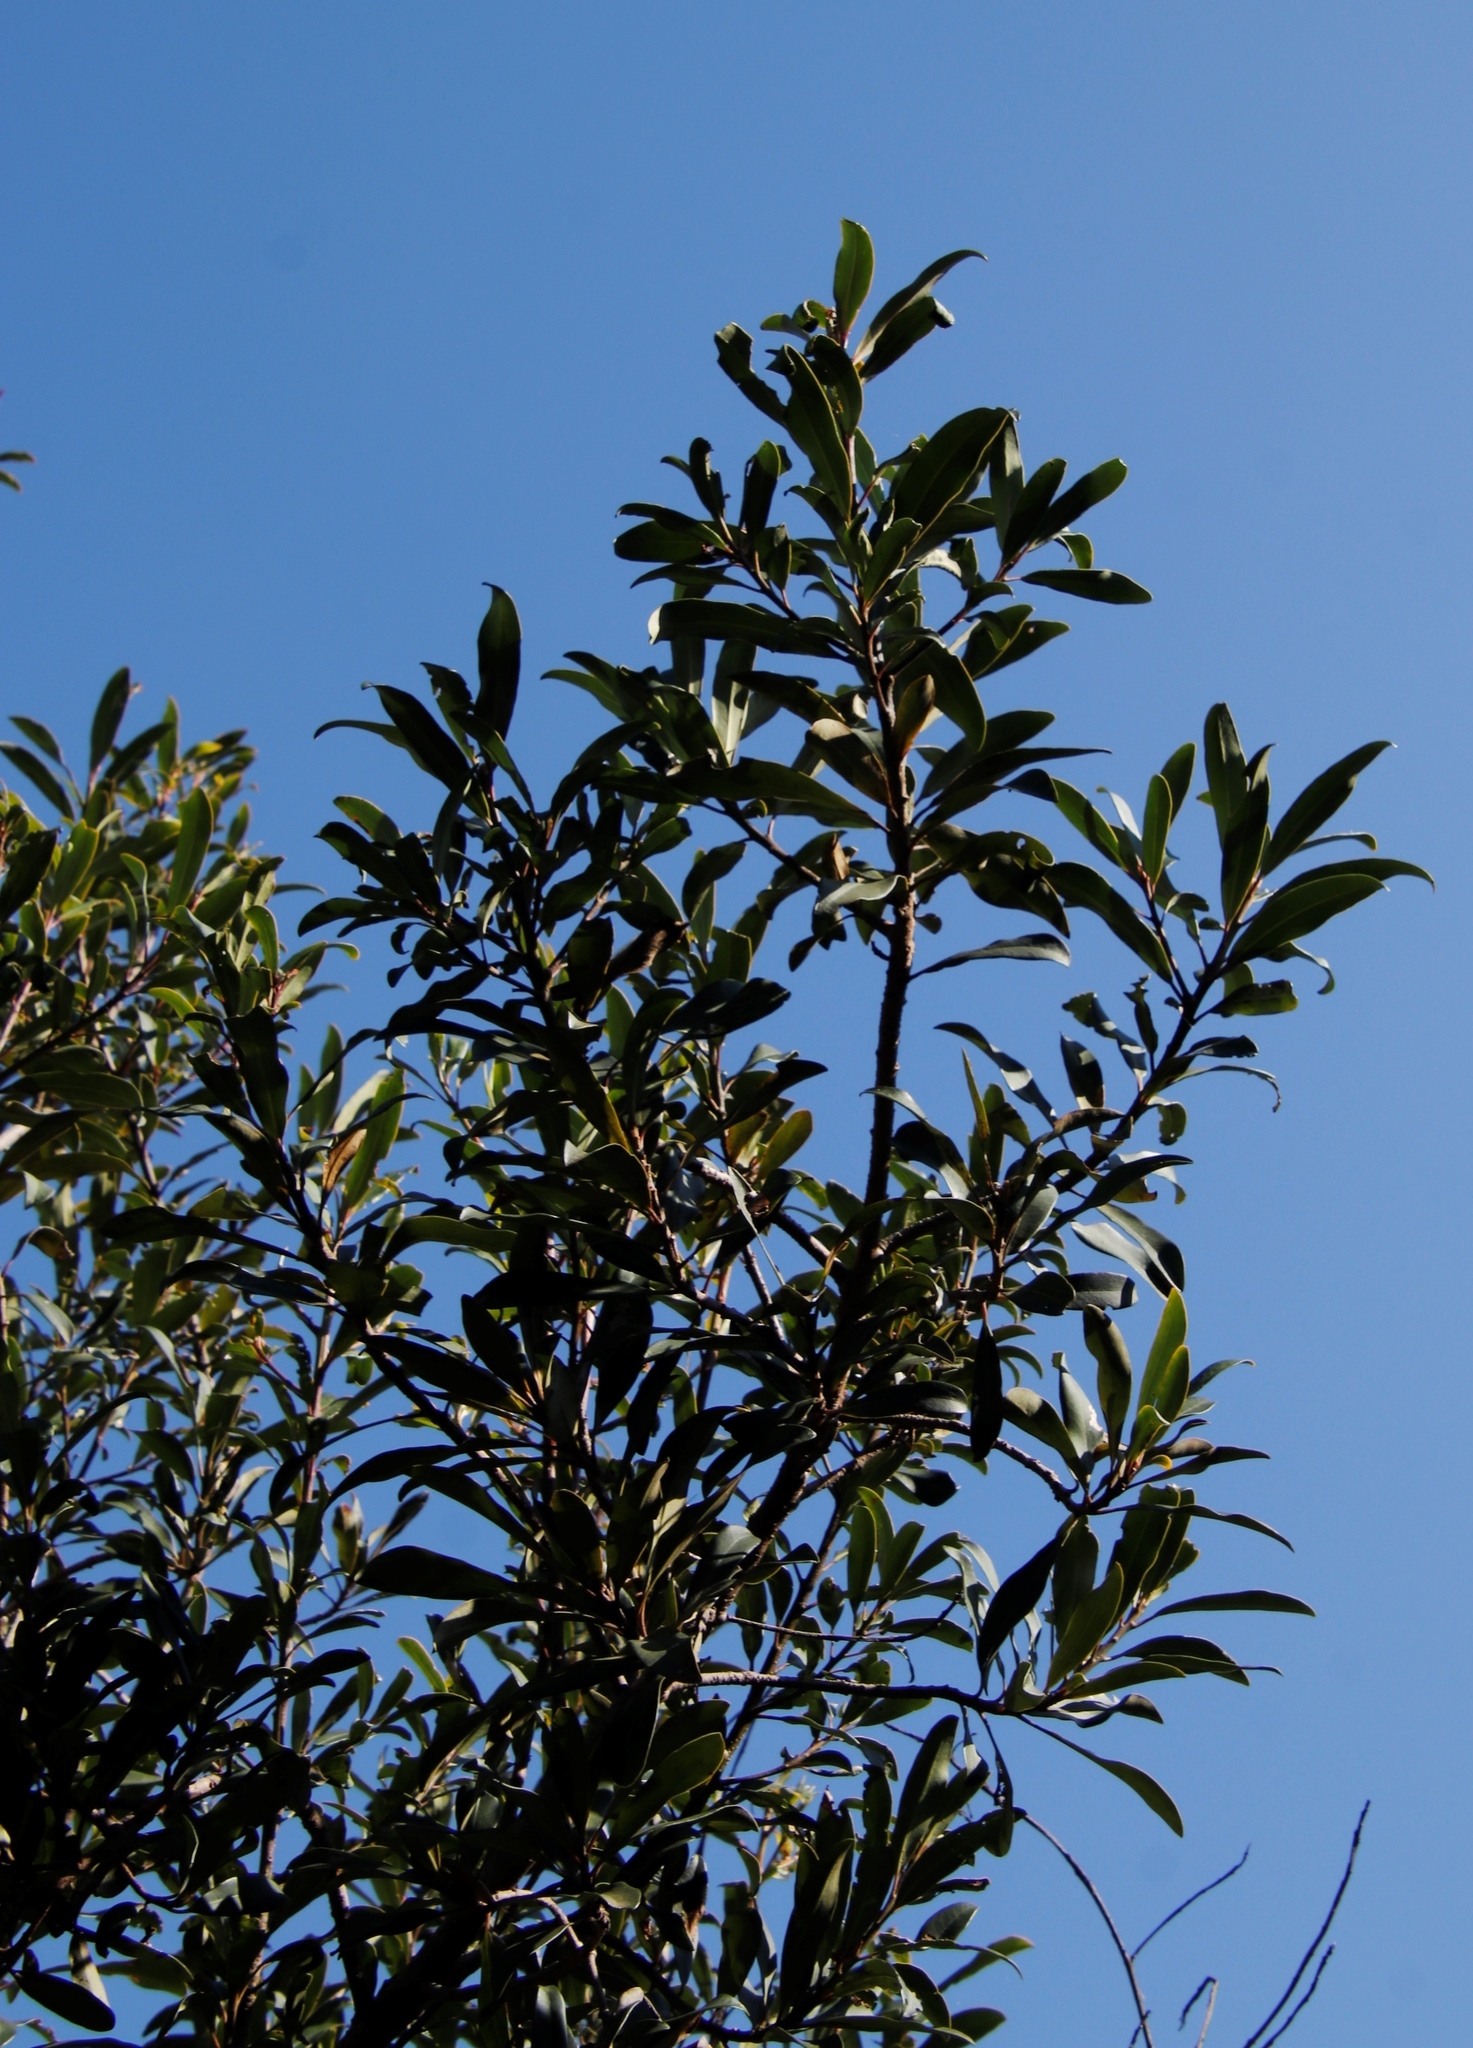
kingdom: Plantae
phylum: Tracheophyta
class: Magnoliopsida
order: Ericales
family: Primulaceae
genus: Myrsine
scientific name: Myrsine melanophloeos
